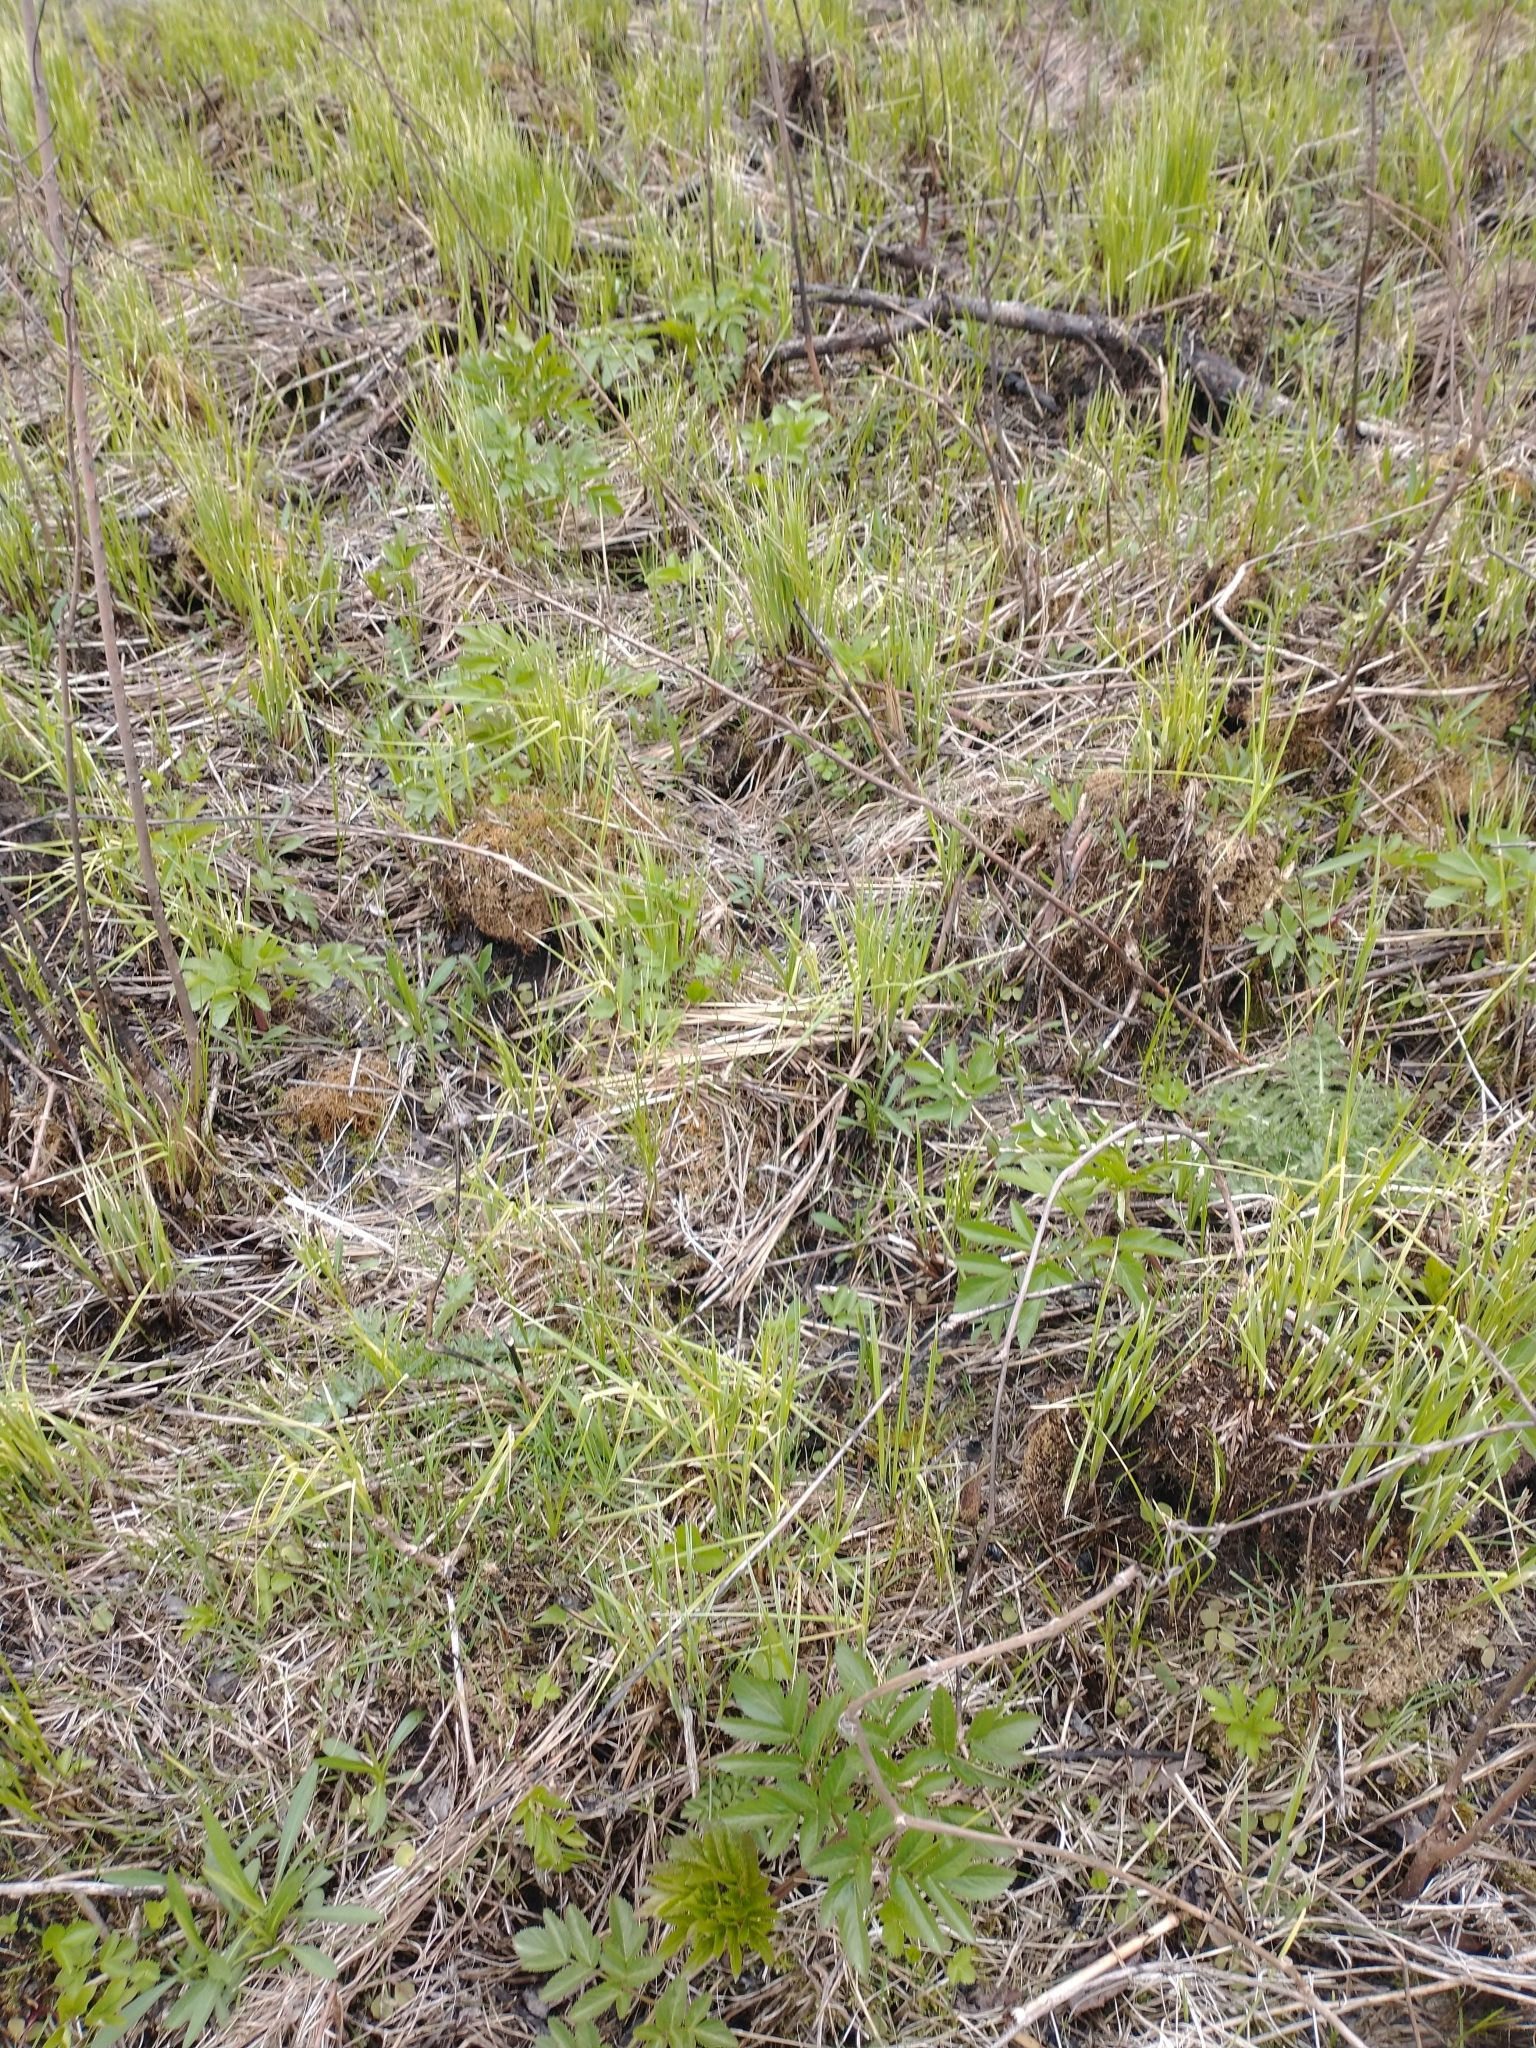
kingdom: Plantae
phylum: Tracheophyta
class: Liliopsida
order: Poales
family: Cyperaceae
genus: Carex
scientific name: Carex stricta
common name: Hummock sedge
